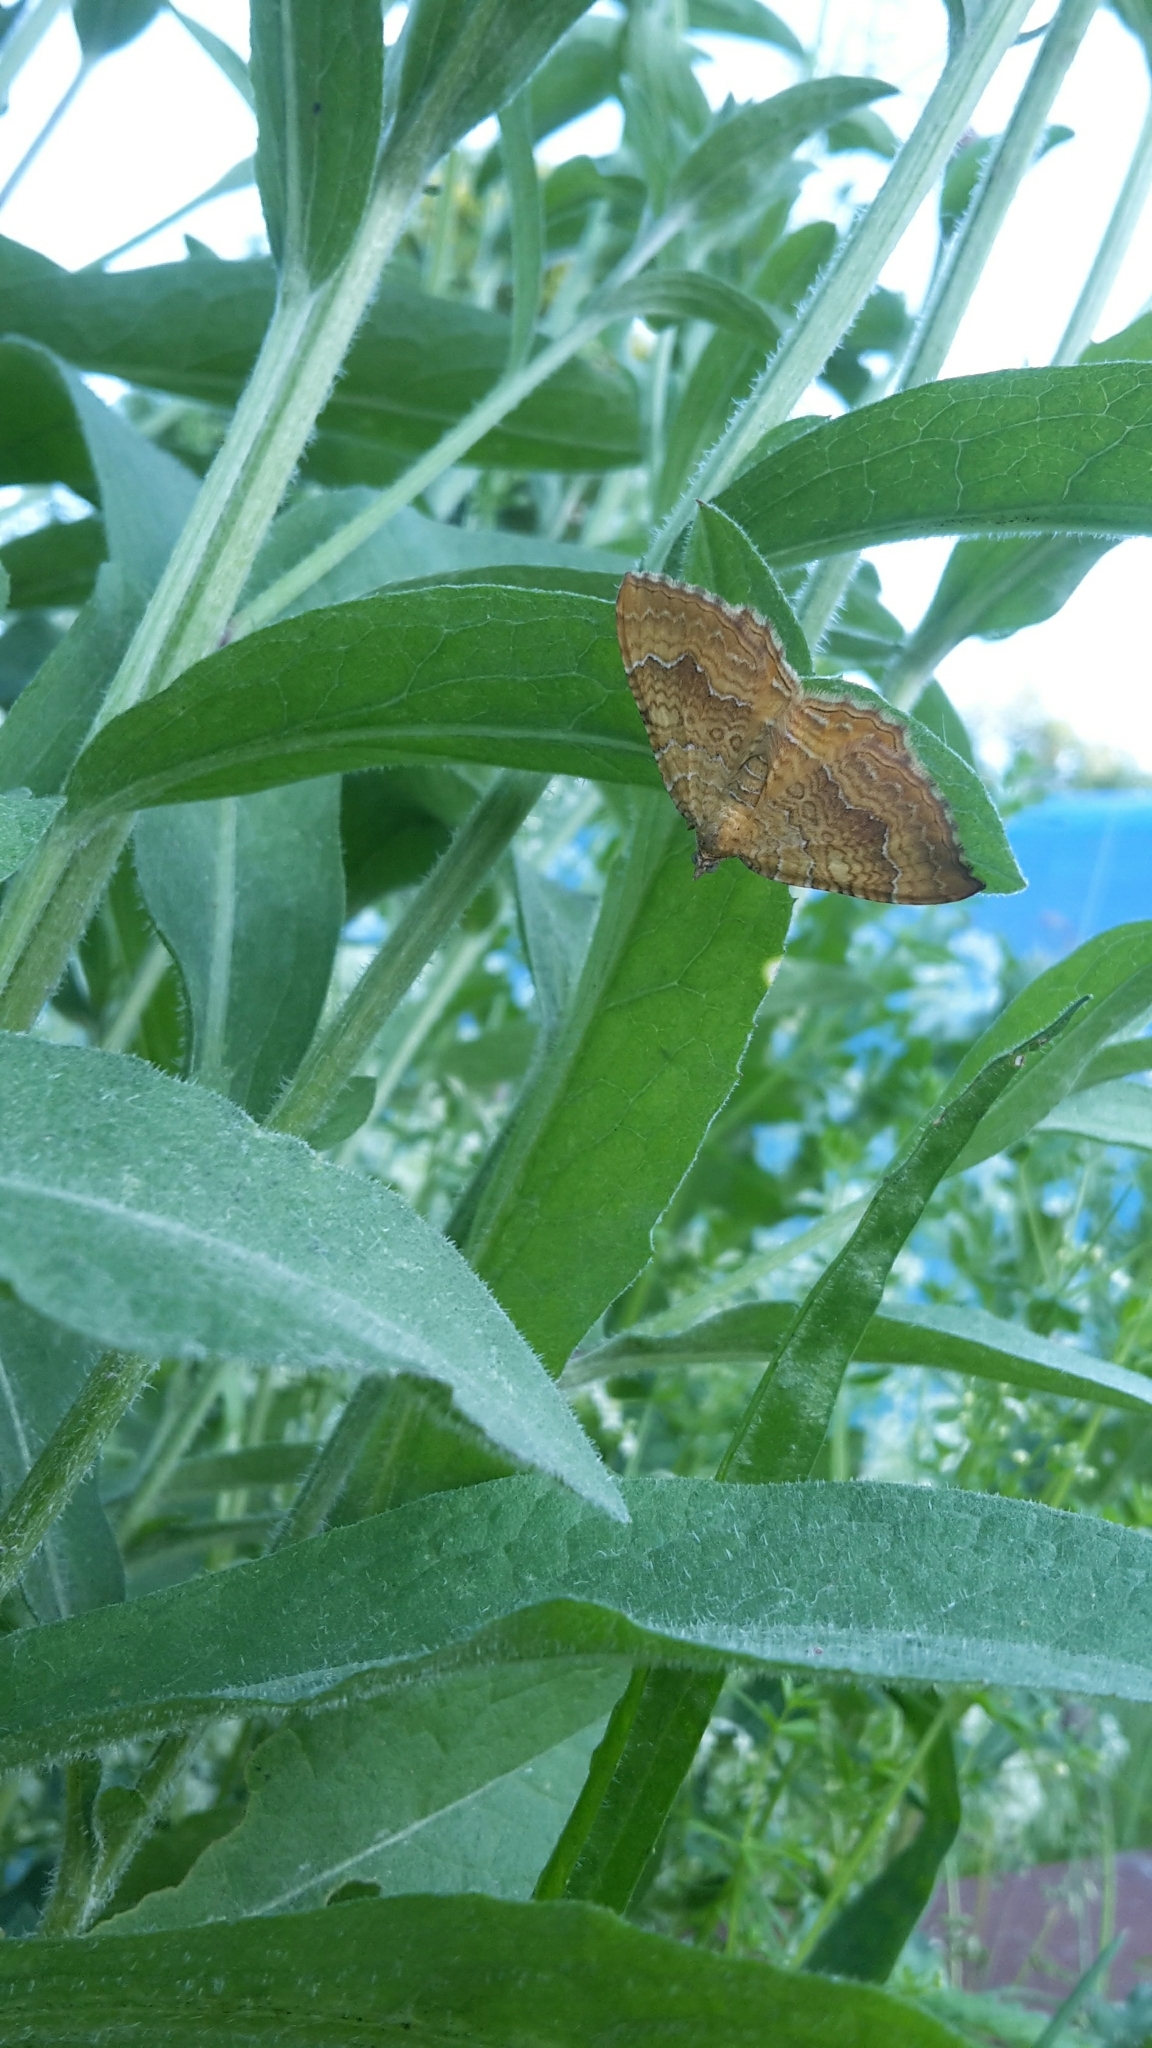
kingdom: Animalia
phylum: Arthropoda
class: Insecta
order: Lepidoptera
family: Geometridae
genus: Camptogramma
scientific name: Camptogramma bilineata
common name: Yellow shell
